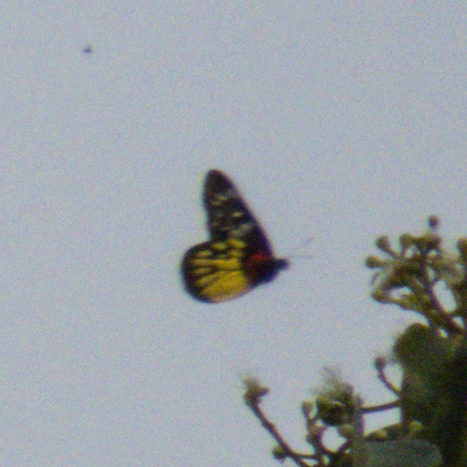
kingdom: Animalia
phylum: Arthropoda
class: Insecta
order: Lepidoptera
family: Pieridae
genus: Delias
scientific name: Delias pasithoe
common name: Red-base jezebel
